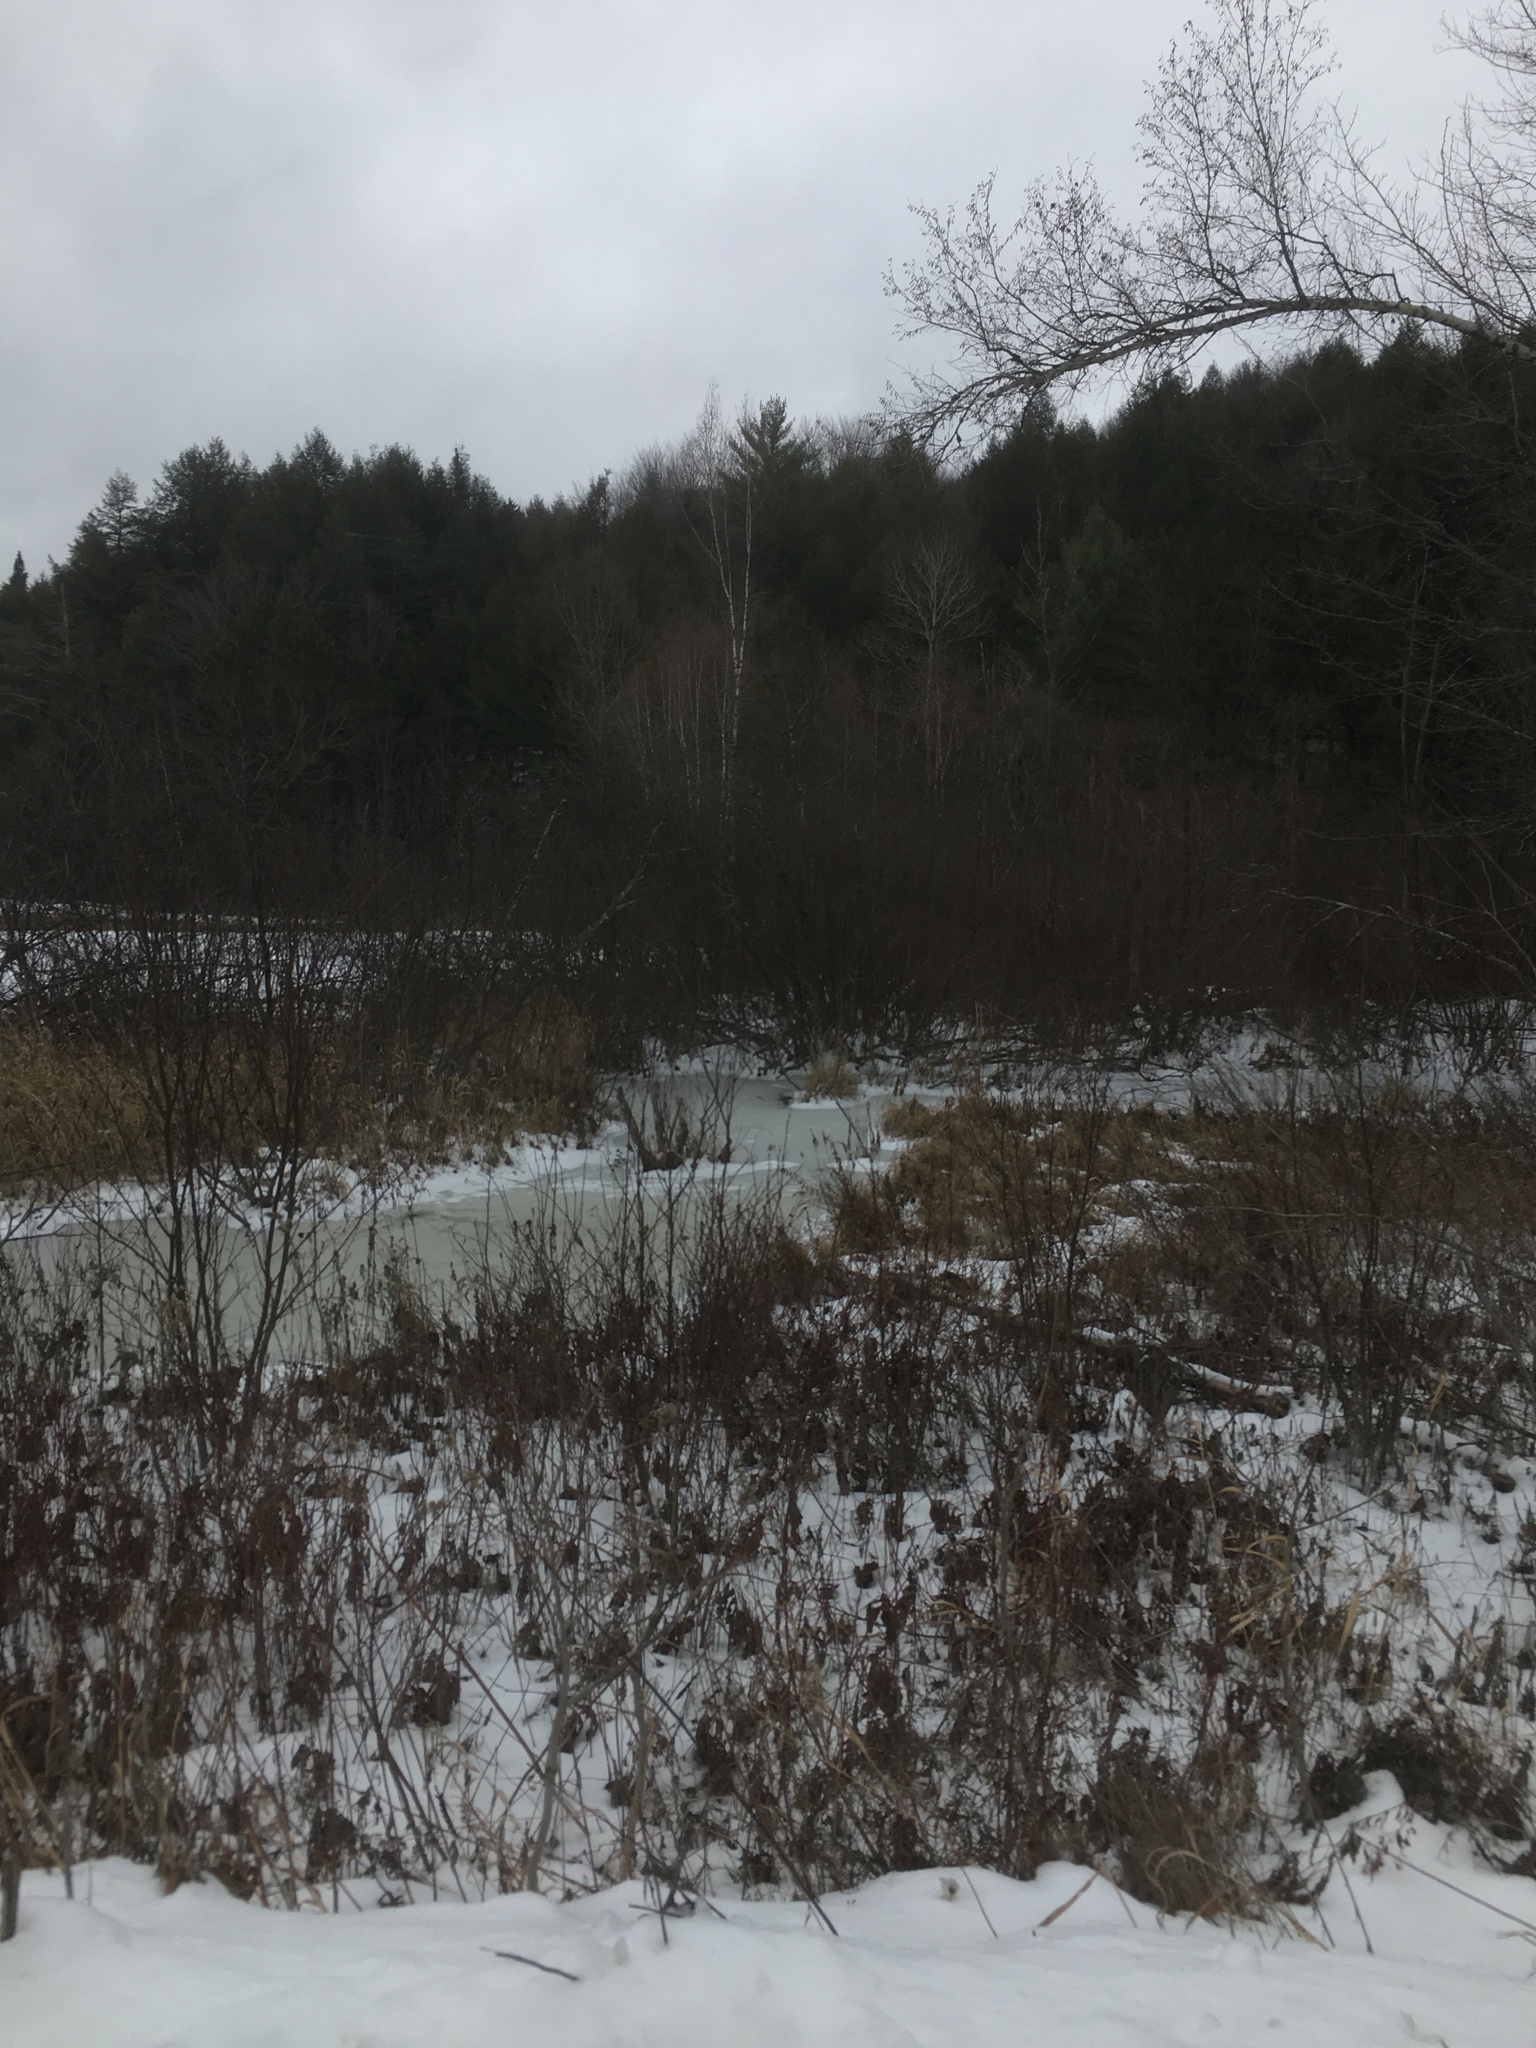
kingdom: Plantae
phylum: Tracheophyta
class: Pinopsida
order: Pinales
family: Pinaceae
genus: Pinus
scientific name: Pinus strobus
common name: Weymouth pine
